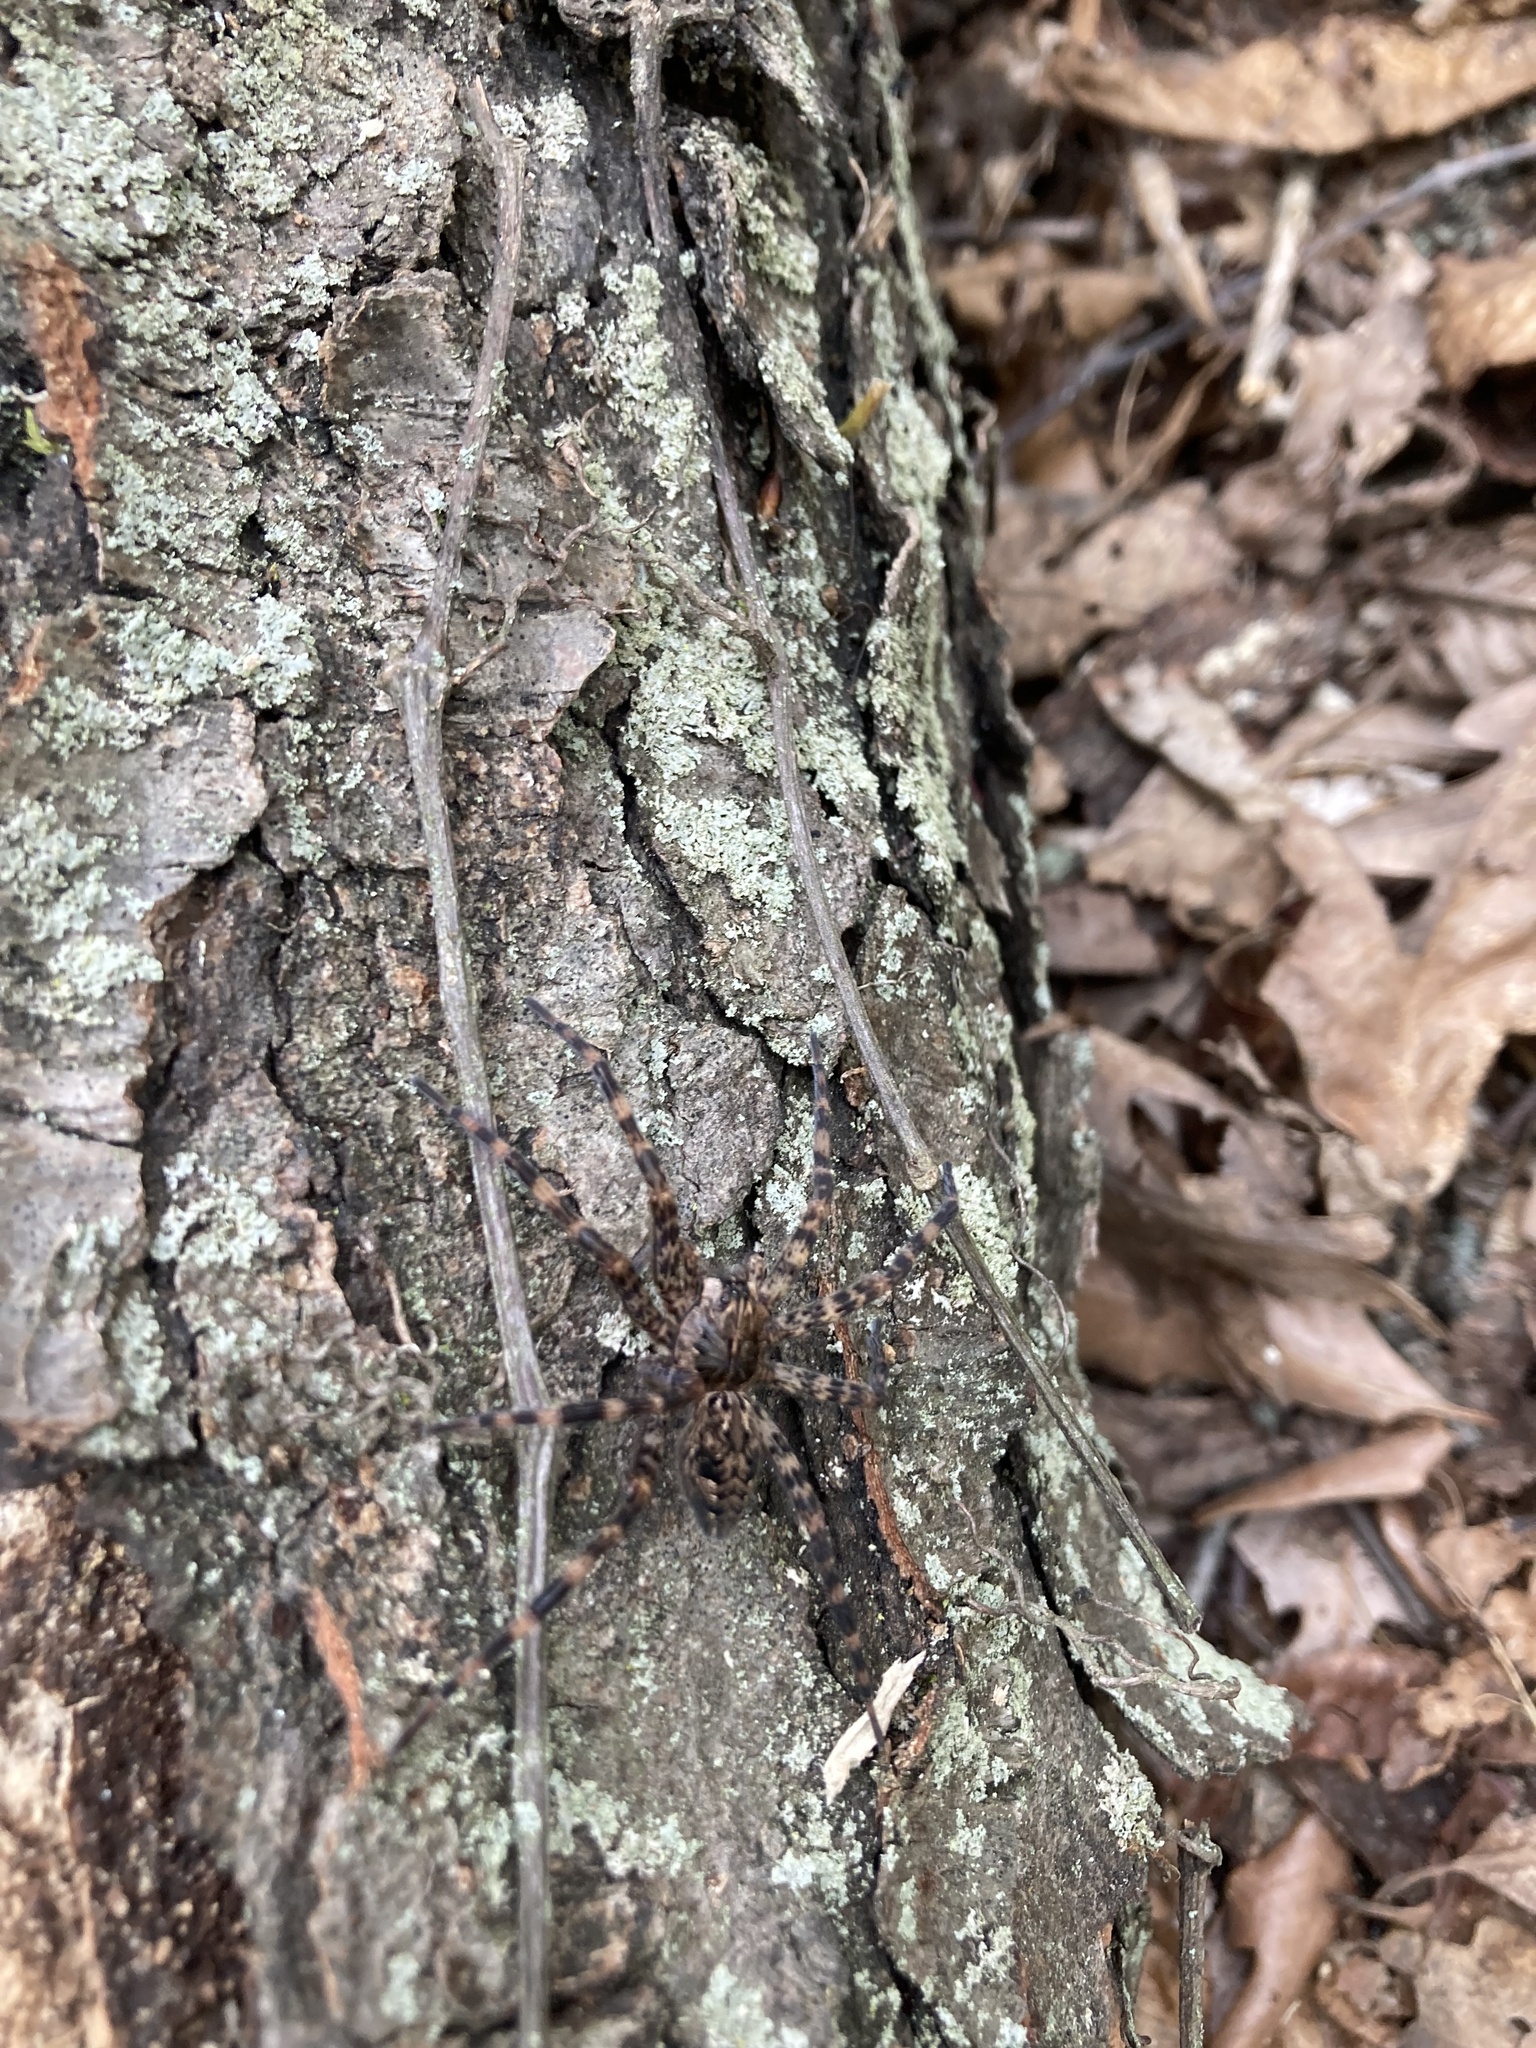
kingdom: Animalia
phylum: Arthropoda
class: Arachnida
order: Araneae
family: Pisauridae
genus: Dolomedes
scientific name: Dolomedes tenebrosus
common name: Dark fishing spider
